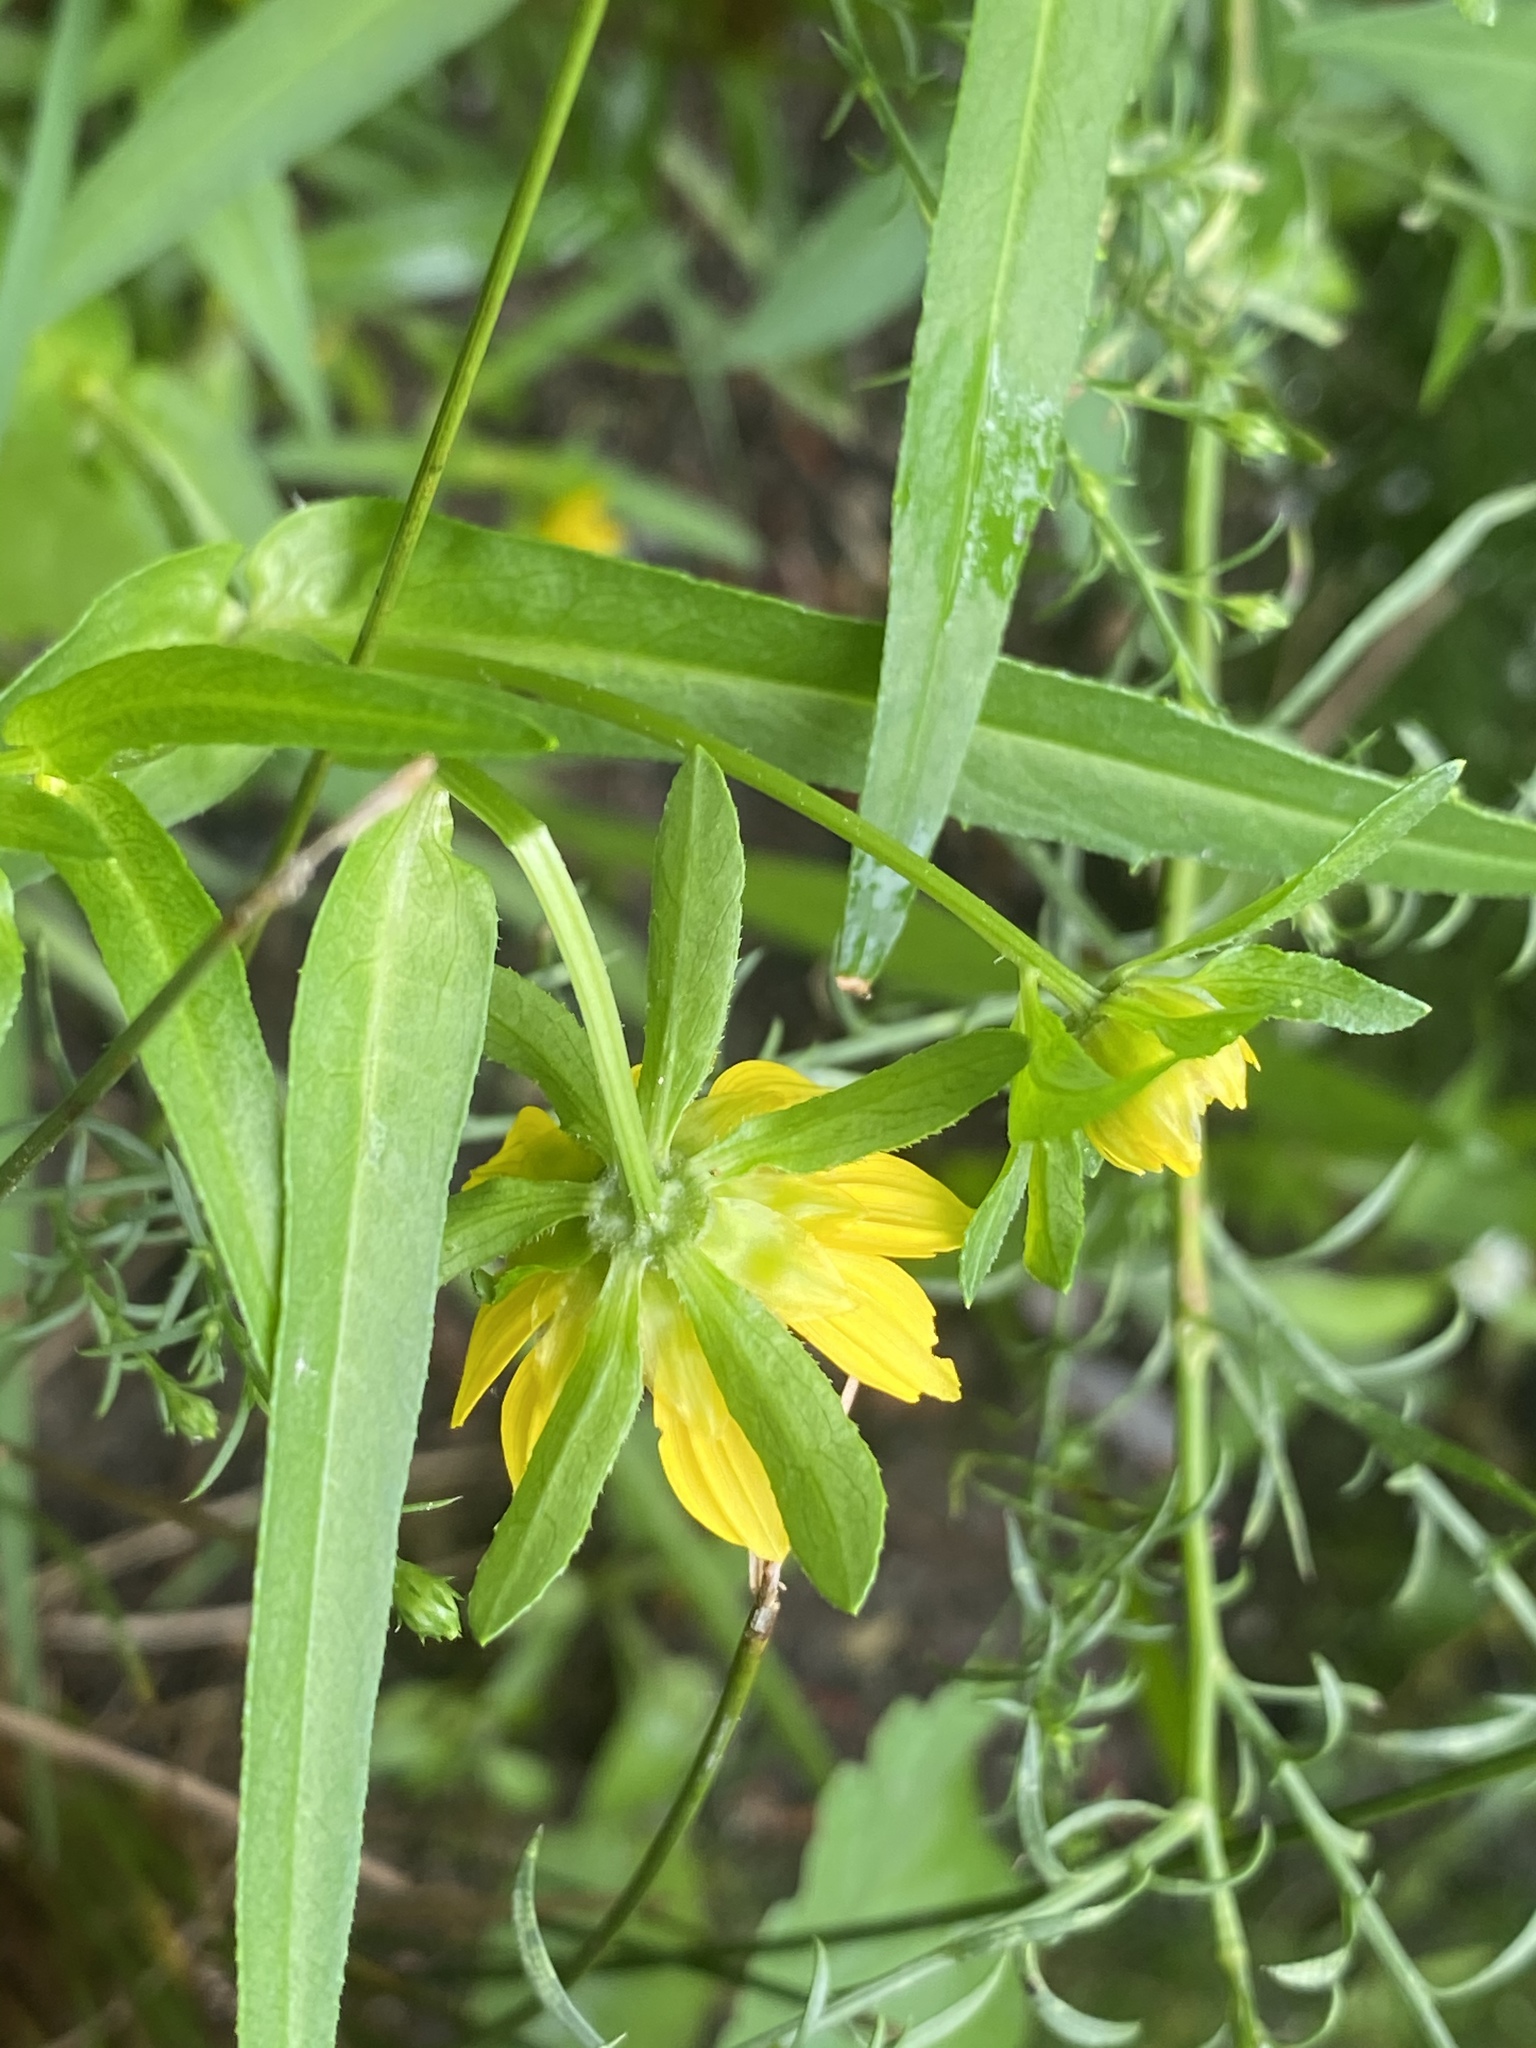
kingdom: Plantae
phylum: Tracheophyta
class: Magnoliopsida
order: Asterales
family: Asteraceae
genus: Bidens
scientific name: Bidens cernua
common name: Nodding bur-marigold
